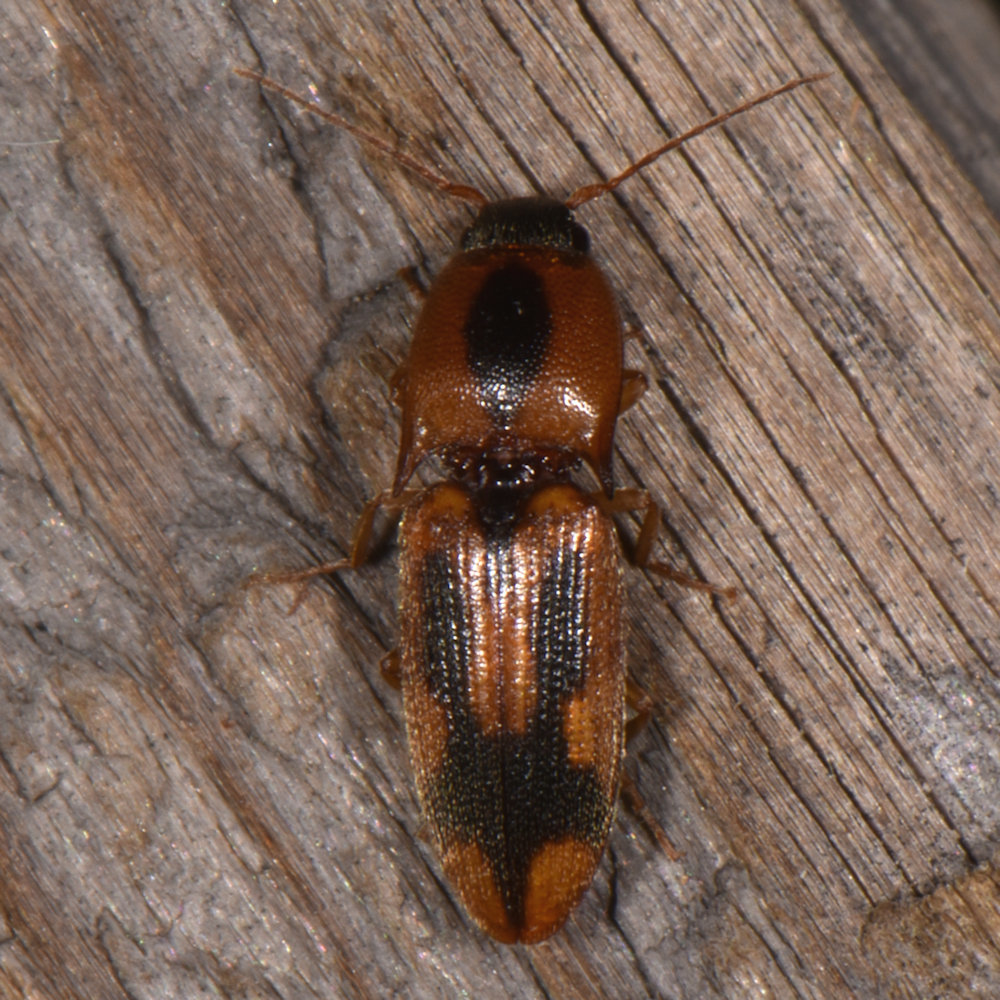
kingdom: Animalia
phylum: Arthropoda
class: Insecta
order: Coleoptera
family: Elateridae
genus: Aeolus
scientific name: Aeolus mellillus
